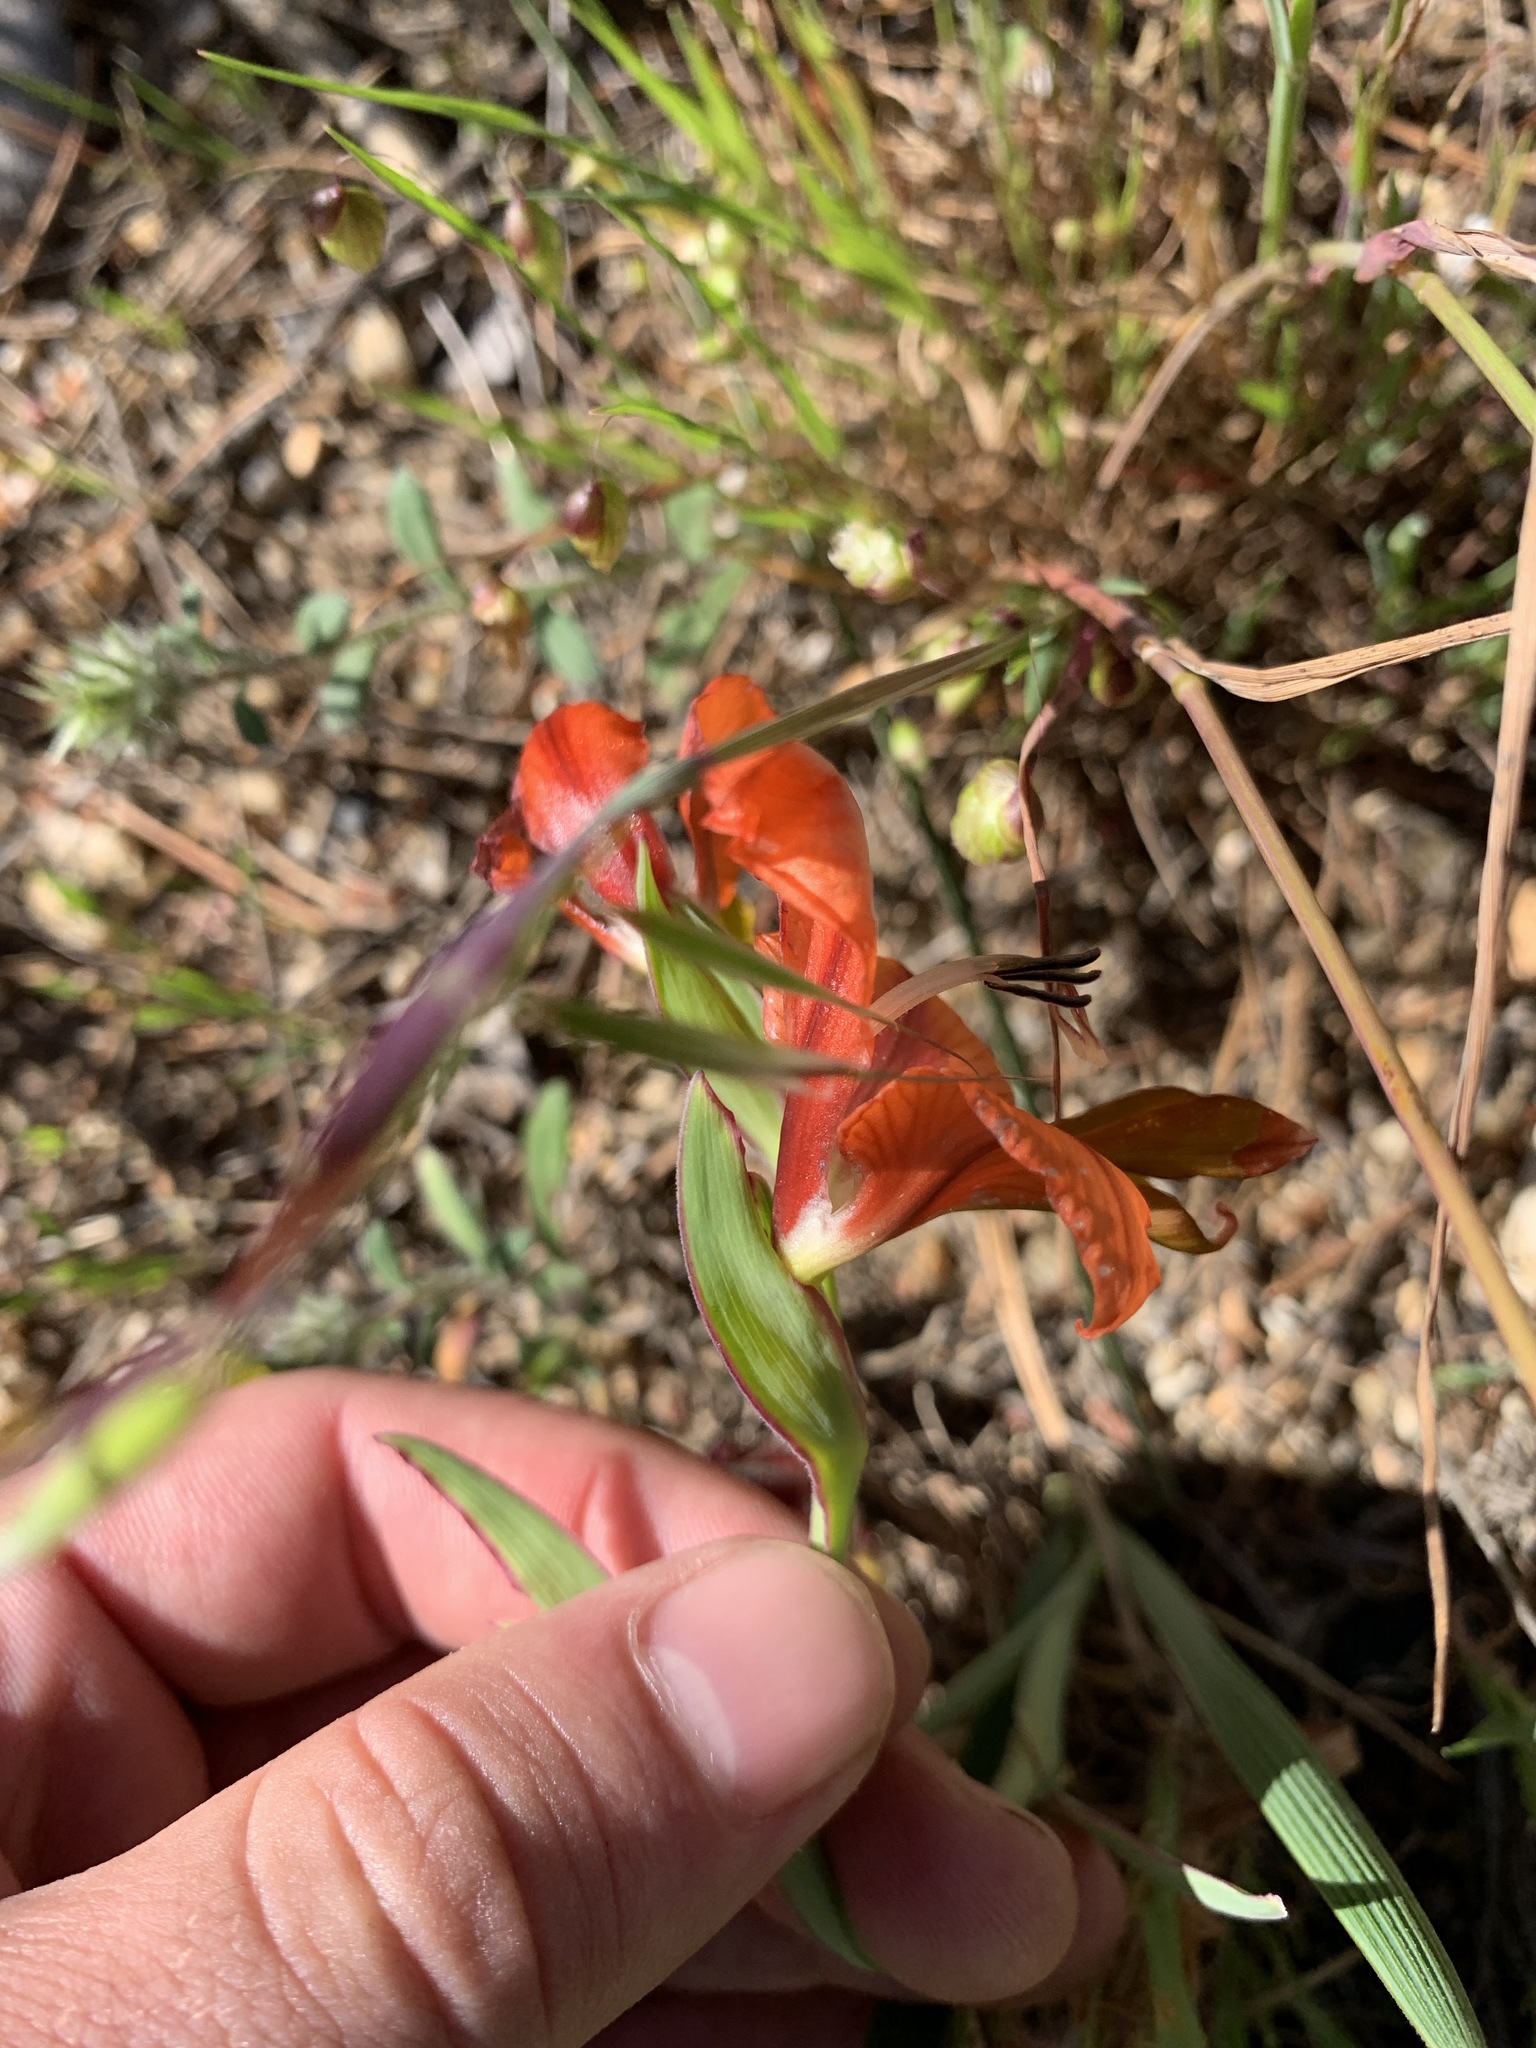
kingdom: Plantae
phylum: Tracheophyta
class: Liliopsida
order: Asparagales
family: Iridaceae
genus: Gladiolus
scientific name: Gladiolus alatus
